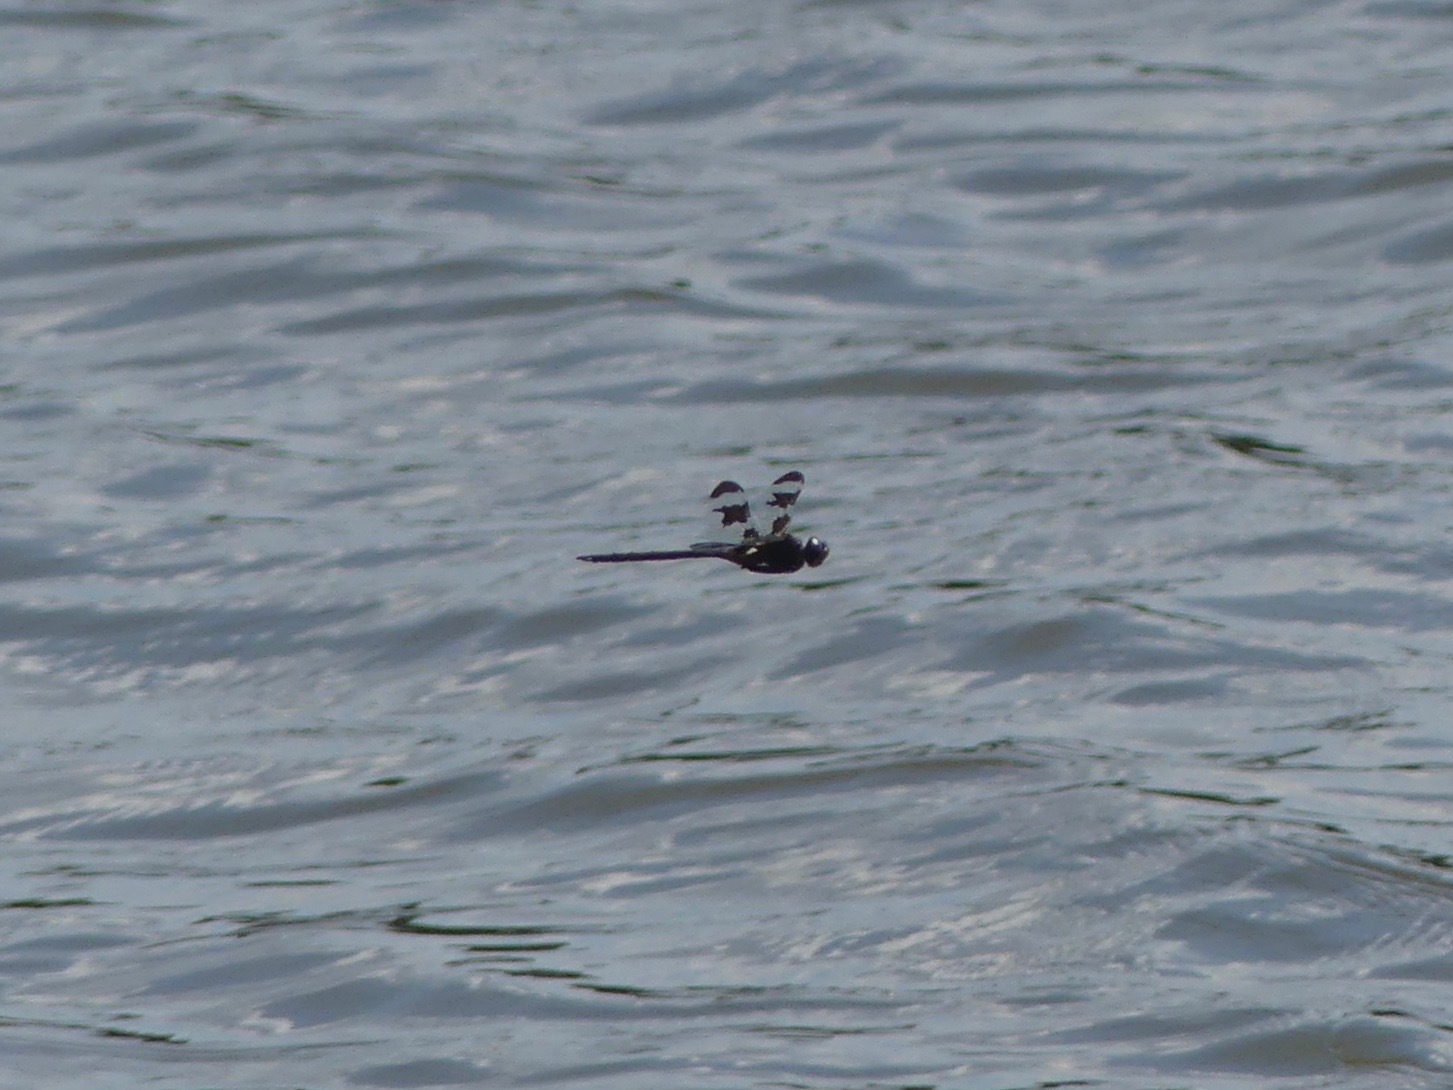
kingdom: Animalia
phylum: Arthropoda
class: Insecta
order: Odonata
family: Corduliidae
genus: Epitheca
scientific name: Epitheca princeps
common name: Prince baskettail
